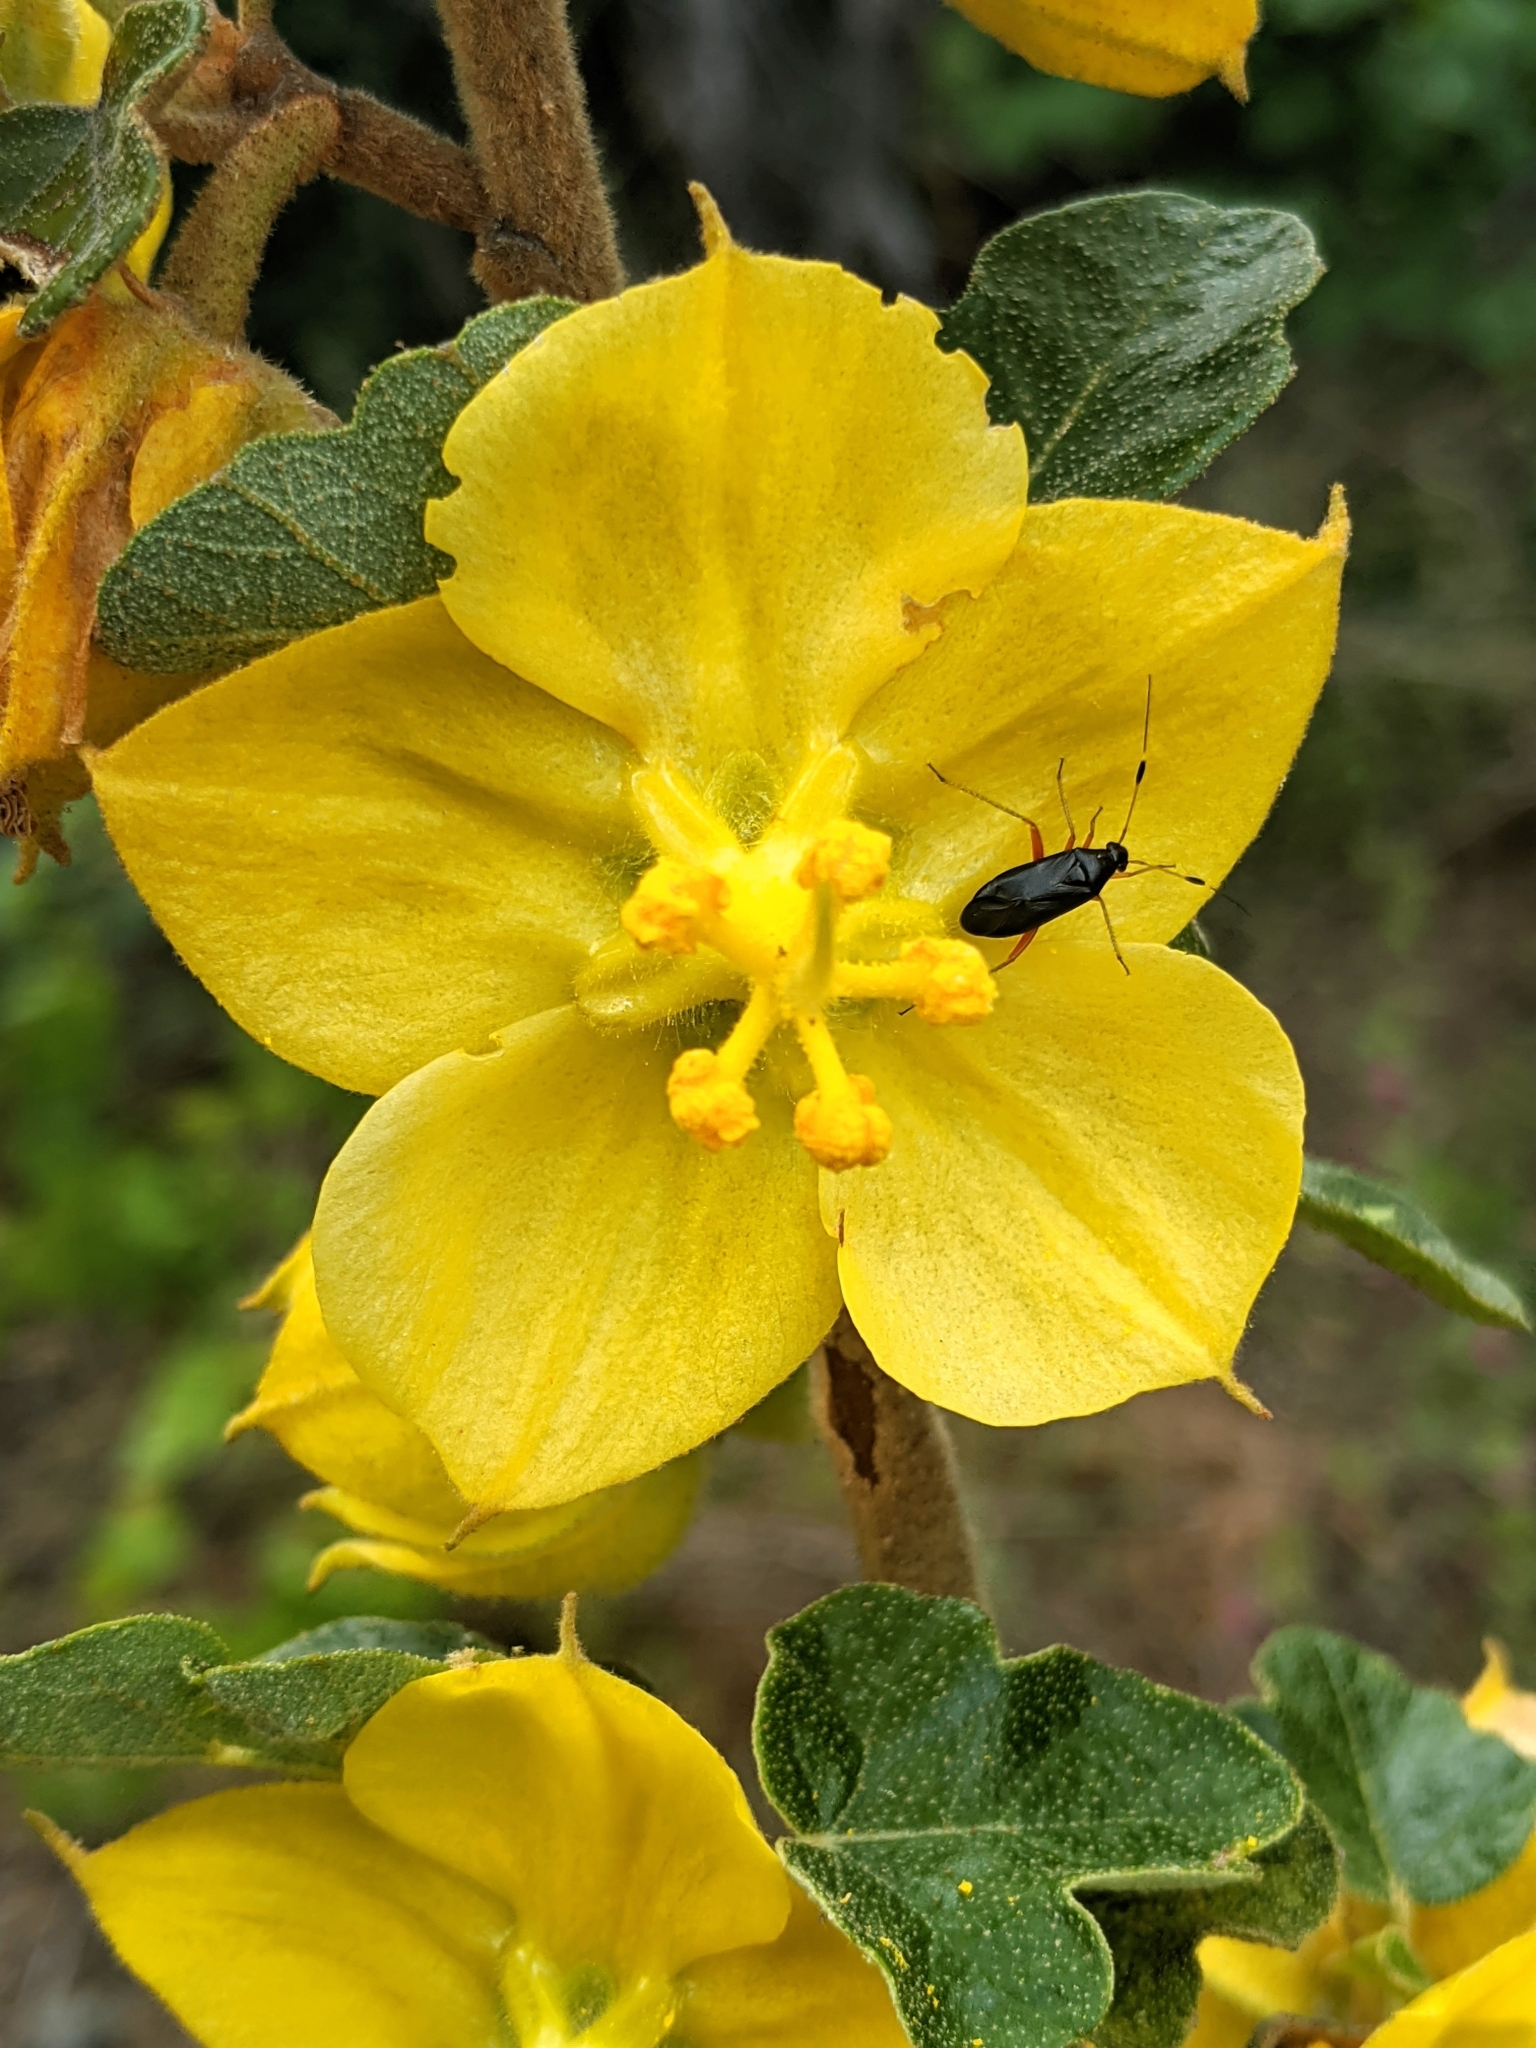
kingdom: Plantae
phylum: Tracheophyta
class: Magnoliopsida
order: Malvales
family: Malvaceae
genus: Fremontodendron
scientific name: Fremontodendron californicum
